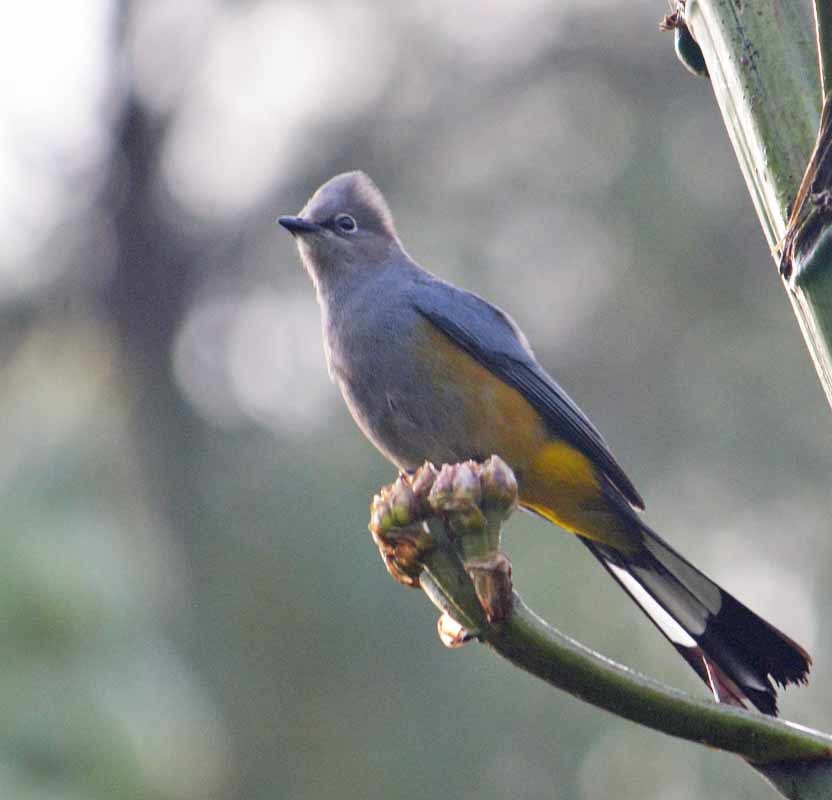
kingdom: Animalia
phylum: Chordata
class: Aves
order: Passeriformes
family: Ptilogonatidae
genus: Ptilogonys
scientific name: Ptilogonys cinereus
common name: Gray silky-flycatcher
